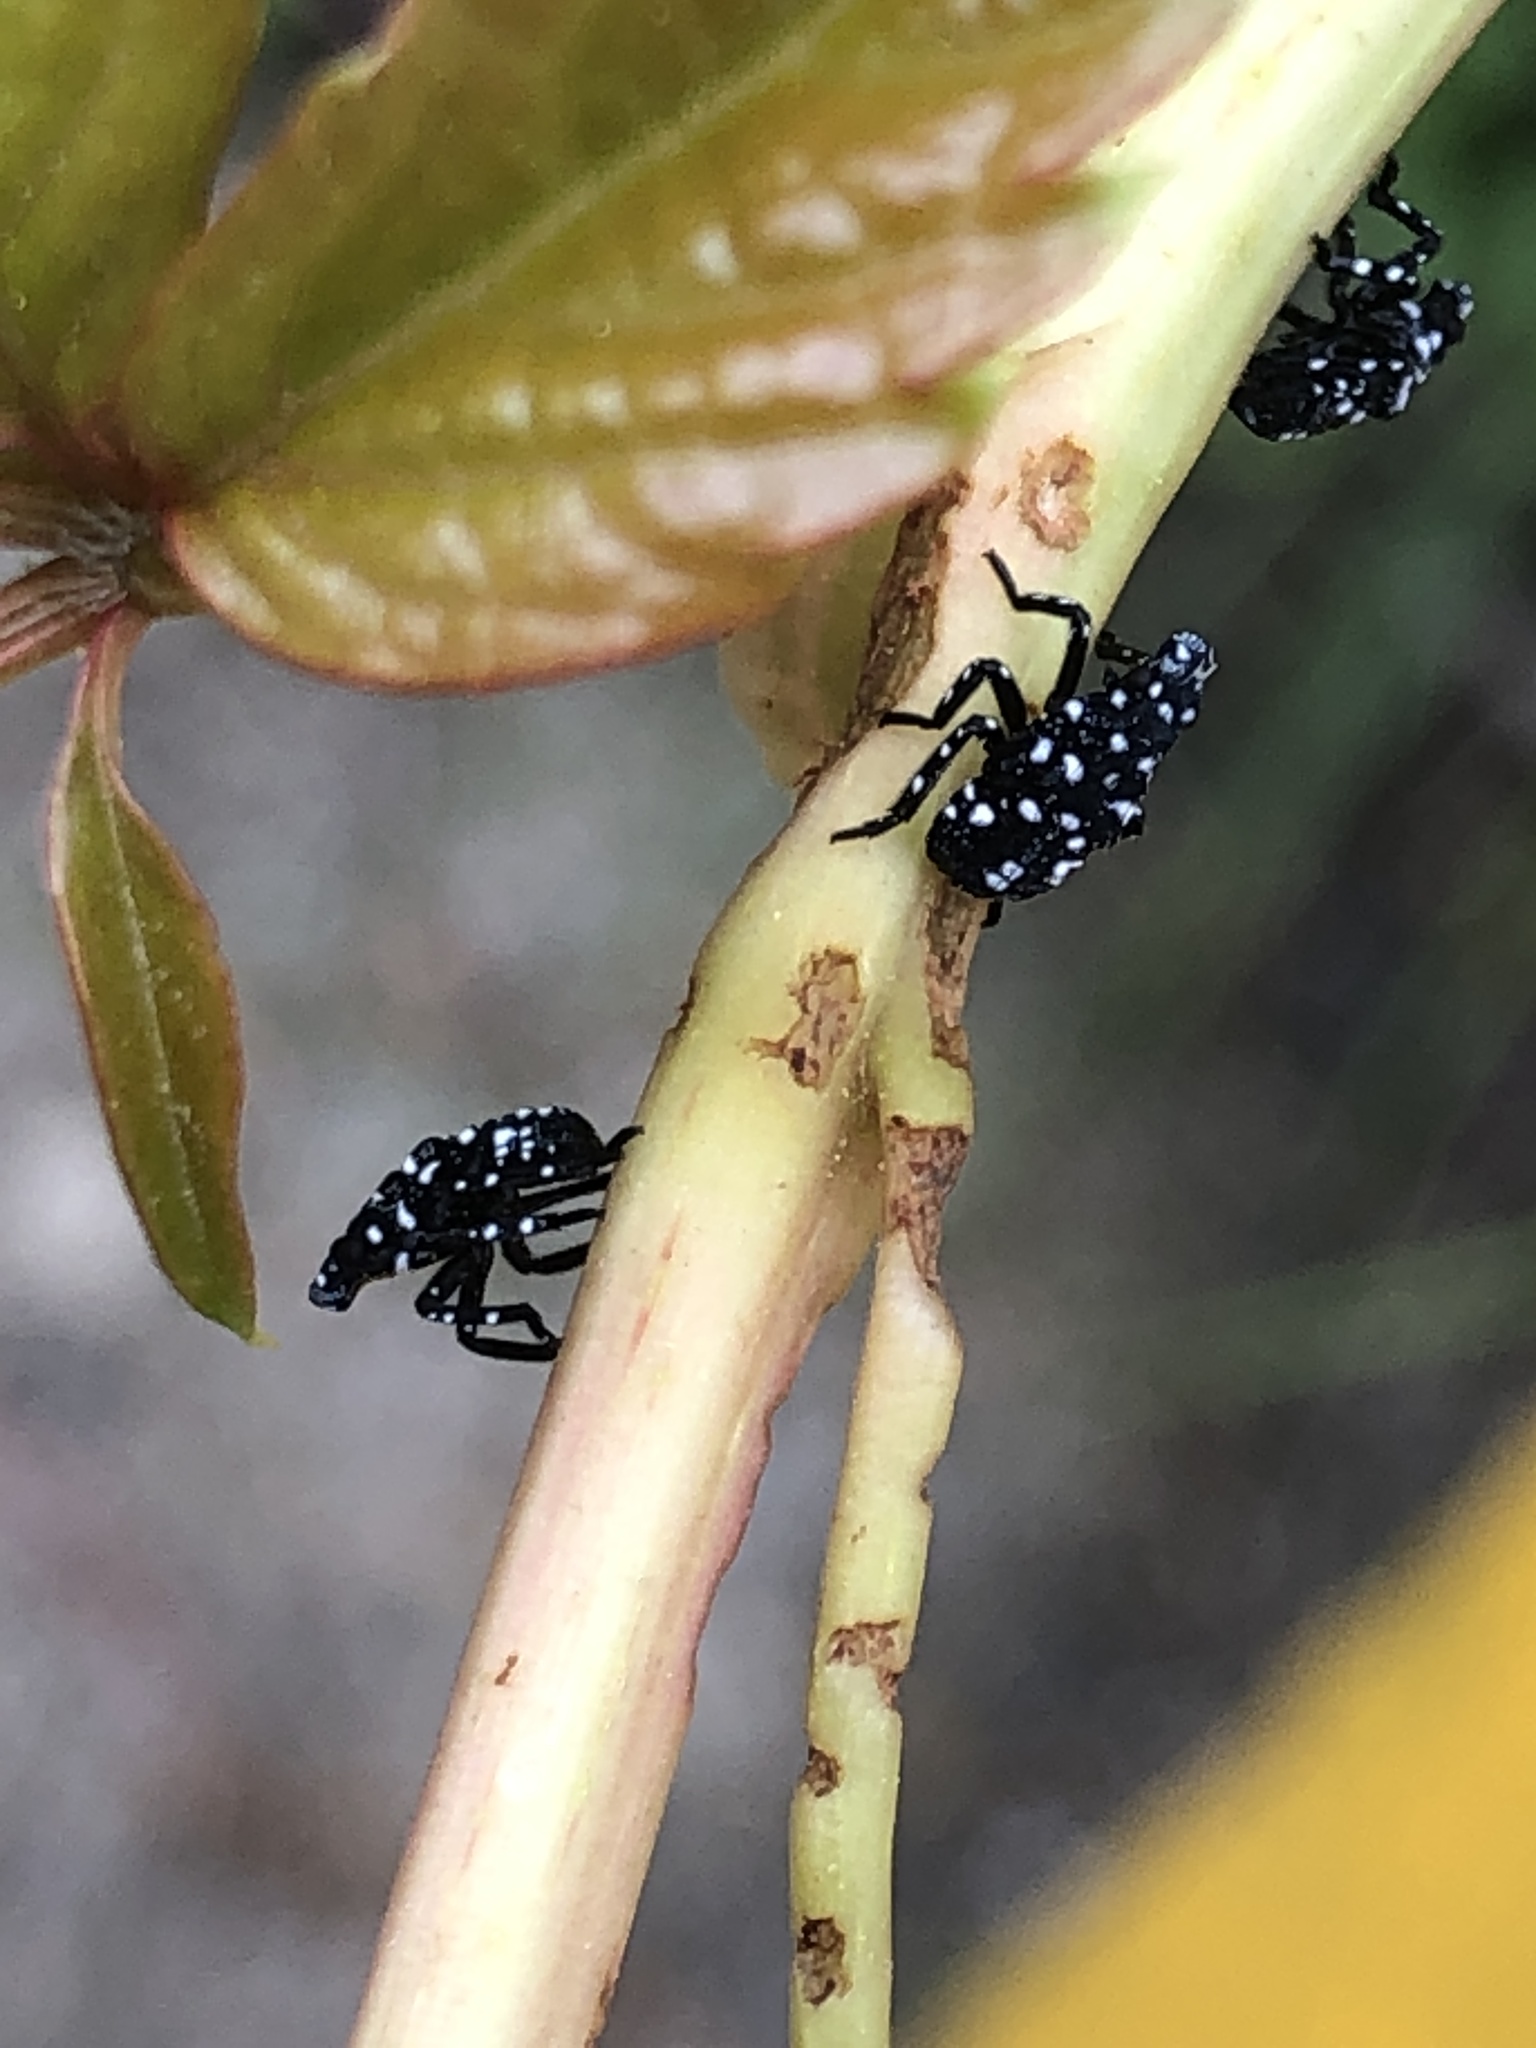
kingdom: Animalia
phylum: Arthropoda
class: Insecta
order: Hemiptera
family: Fulgoridae
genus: Lycorma
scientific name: Lycorma delicatula
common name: Spotted lanternfly
